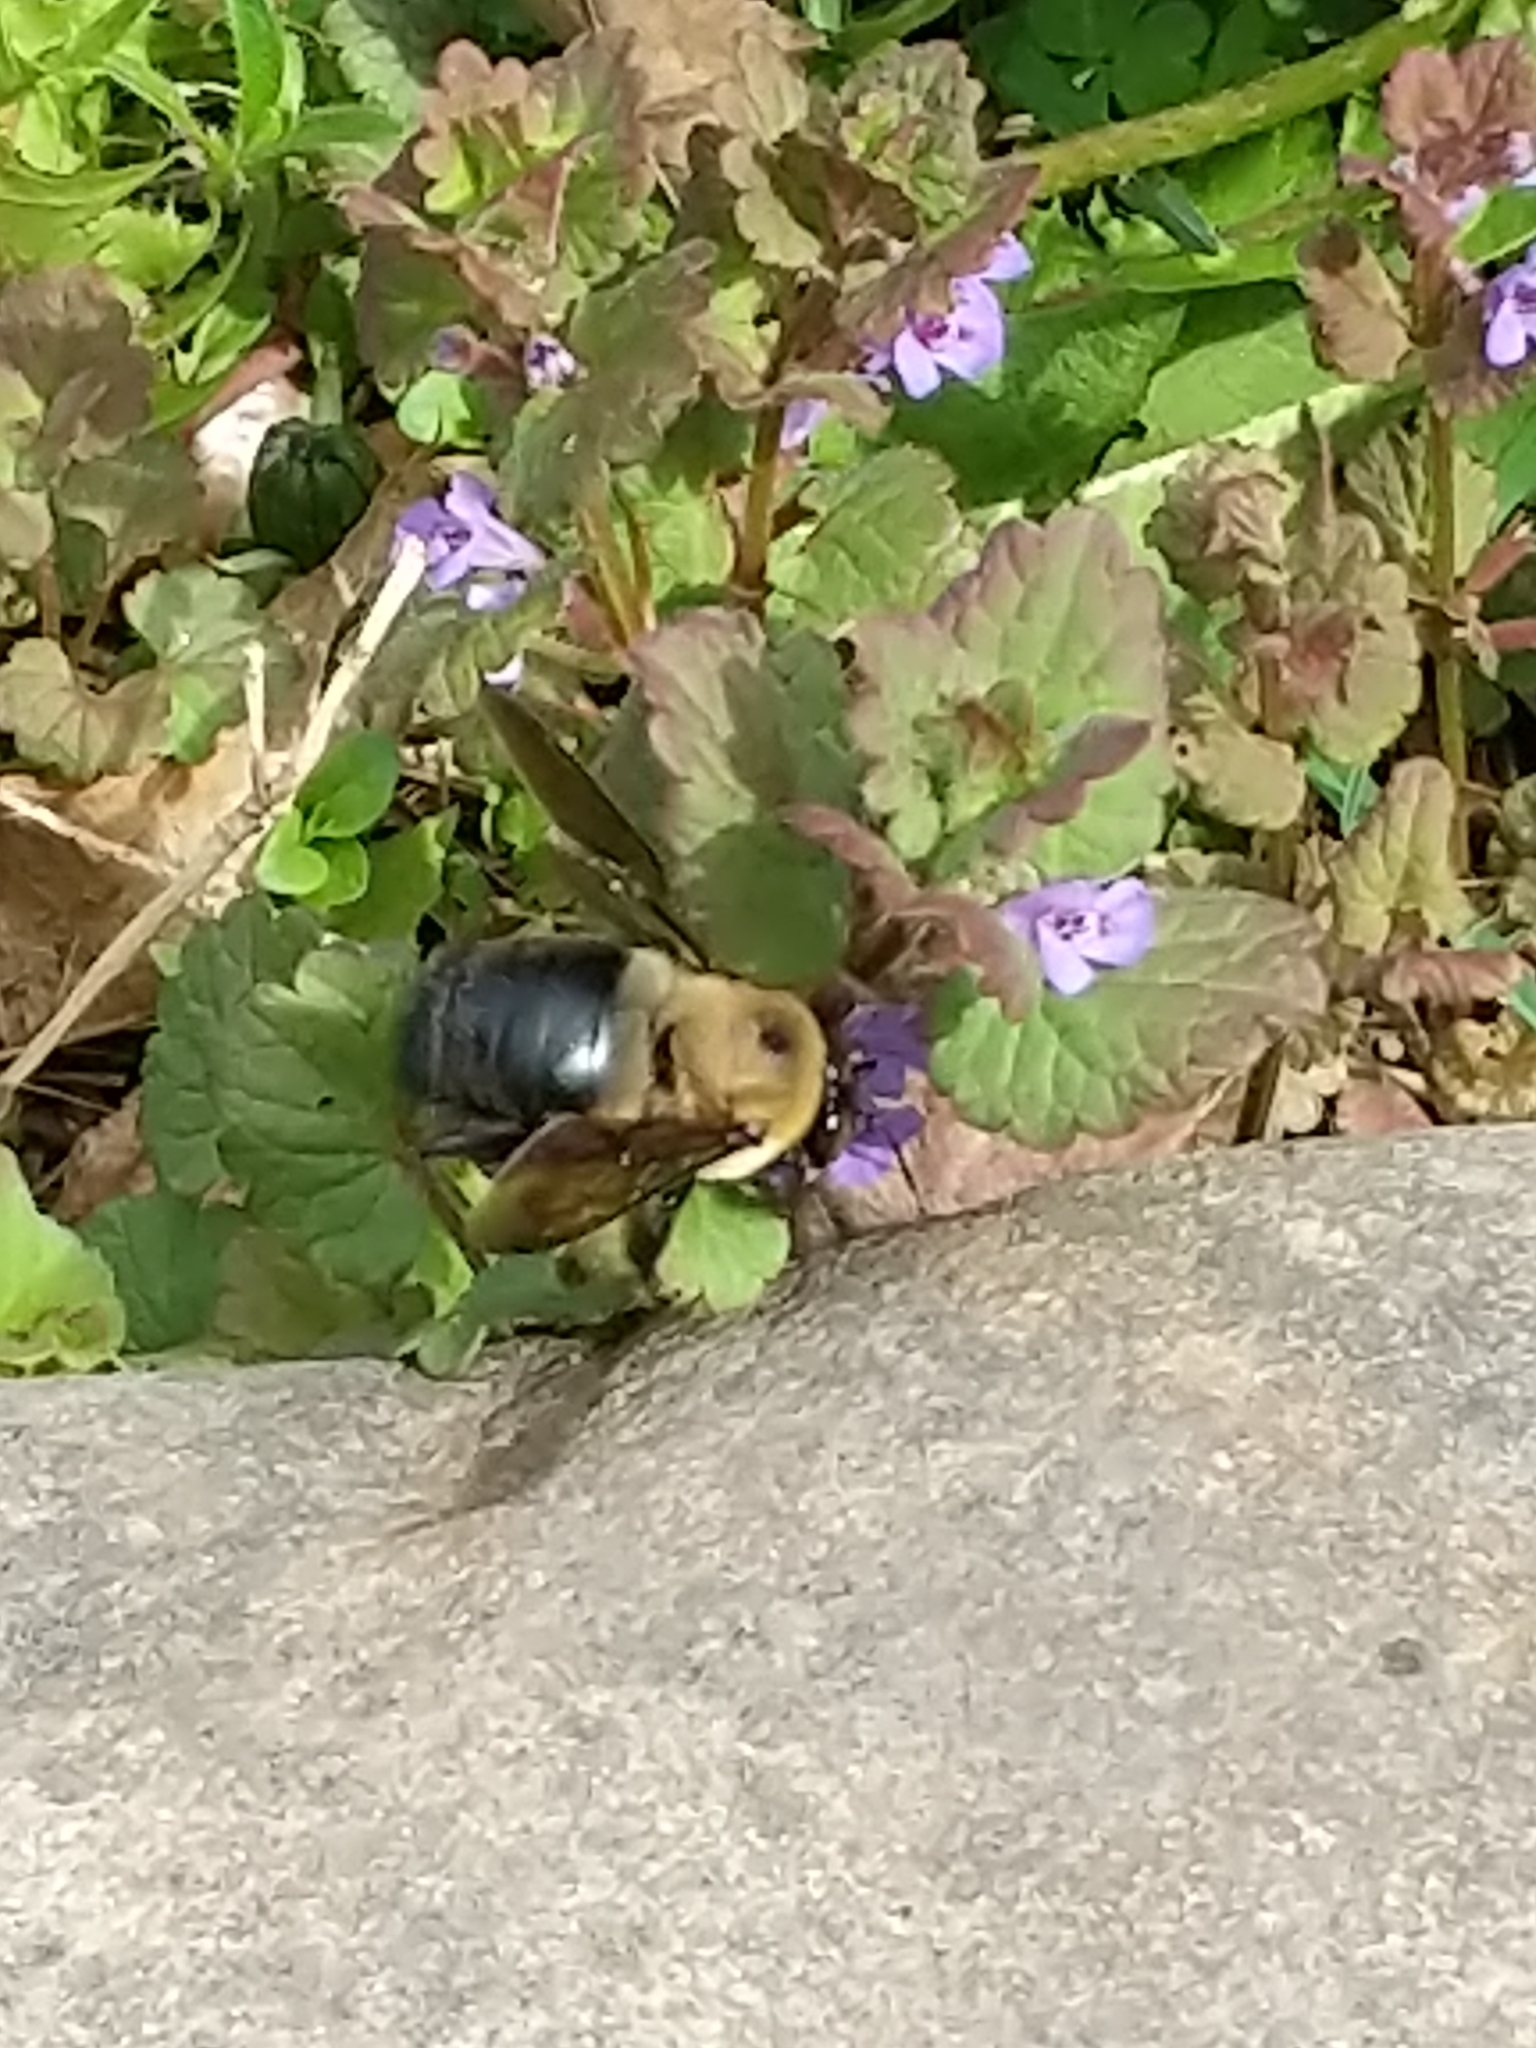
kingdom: Animalia
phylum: Arthropoda
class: Insecta
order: Hymenoptera
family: Apidae
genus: Xylocopa
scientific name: Xylocopa virginica
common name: Carpenter bee
